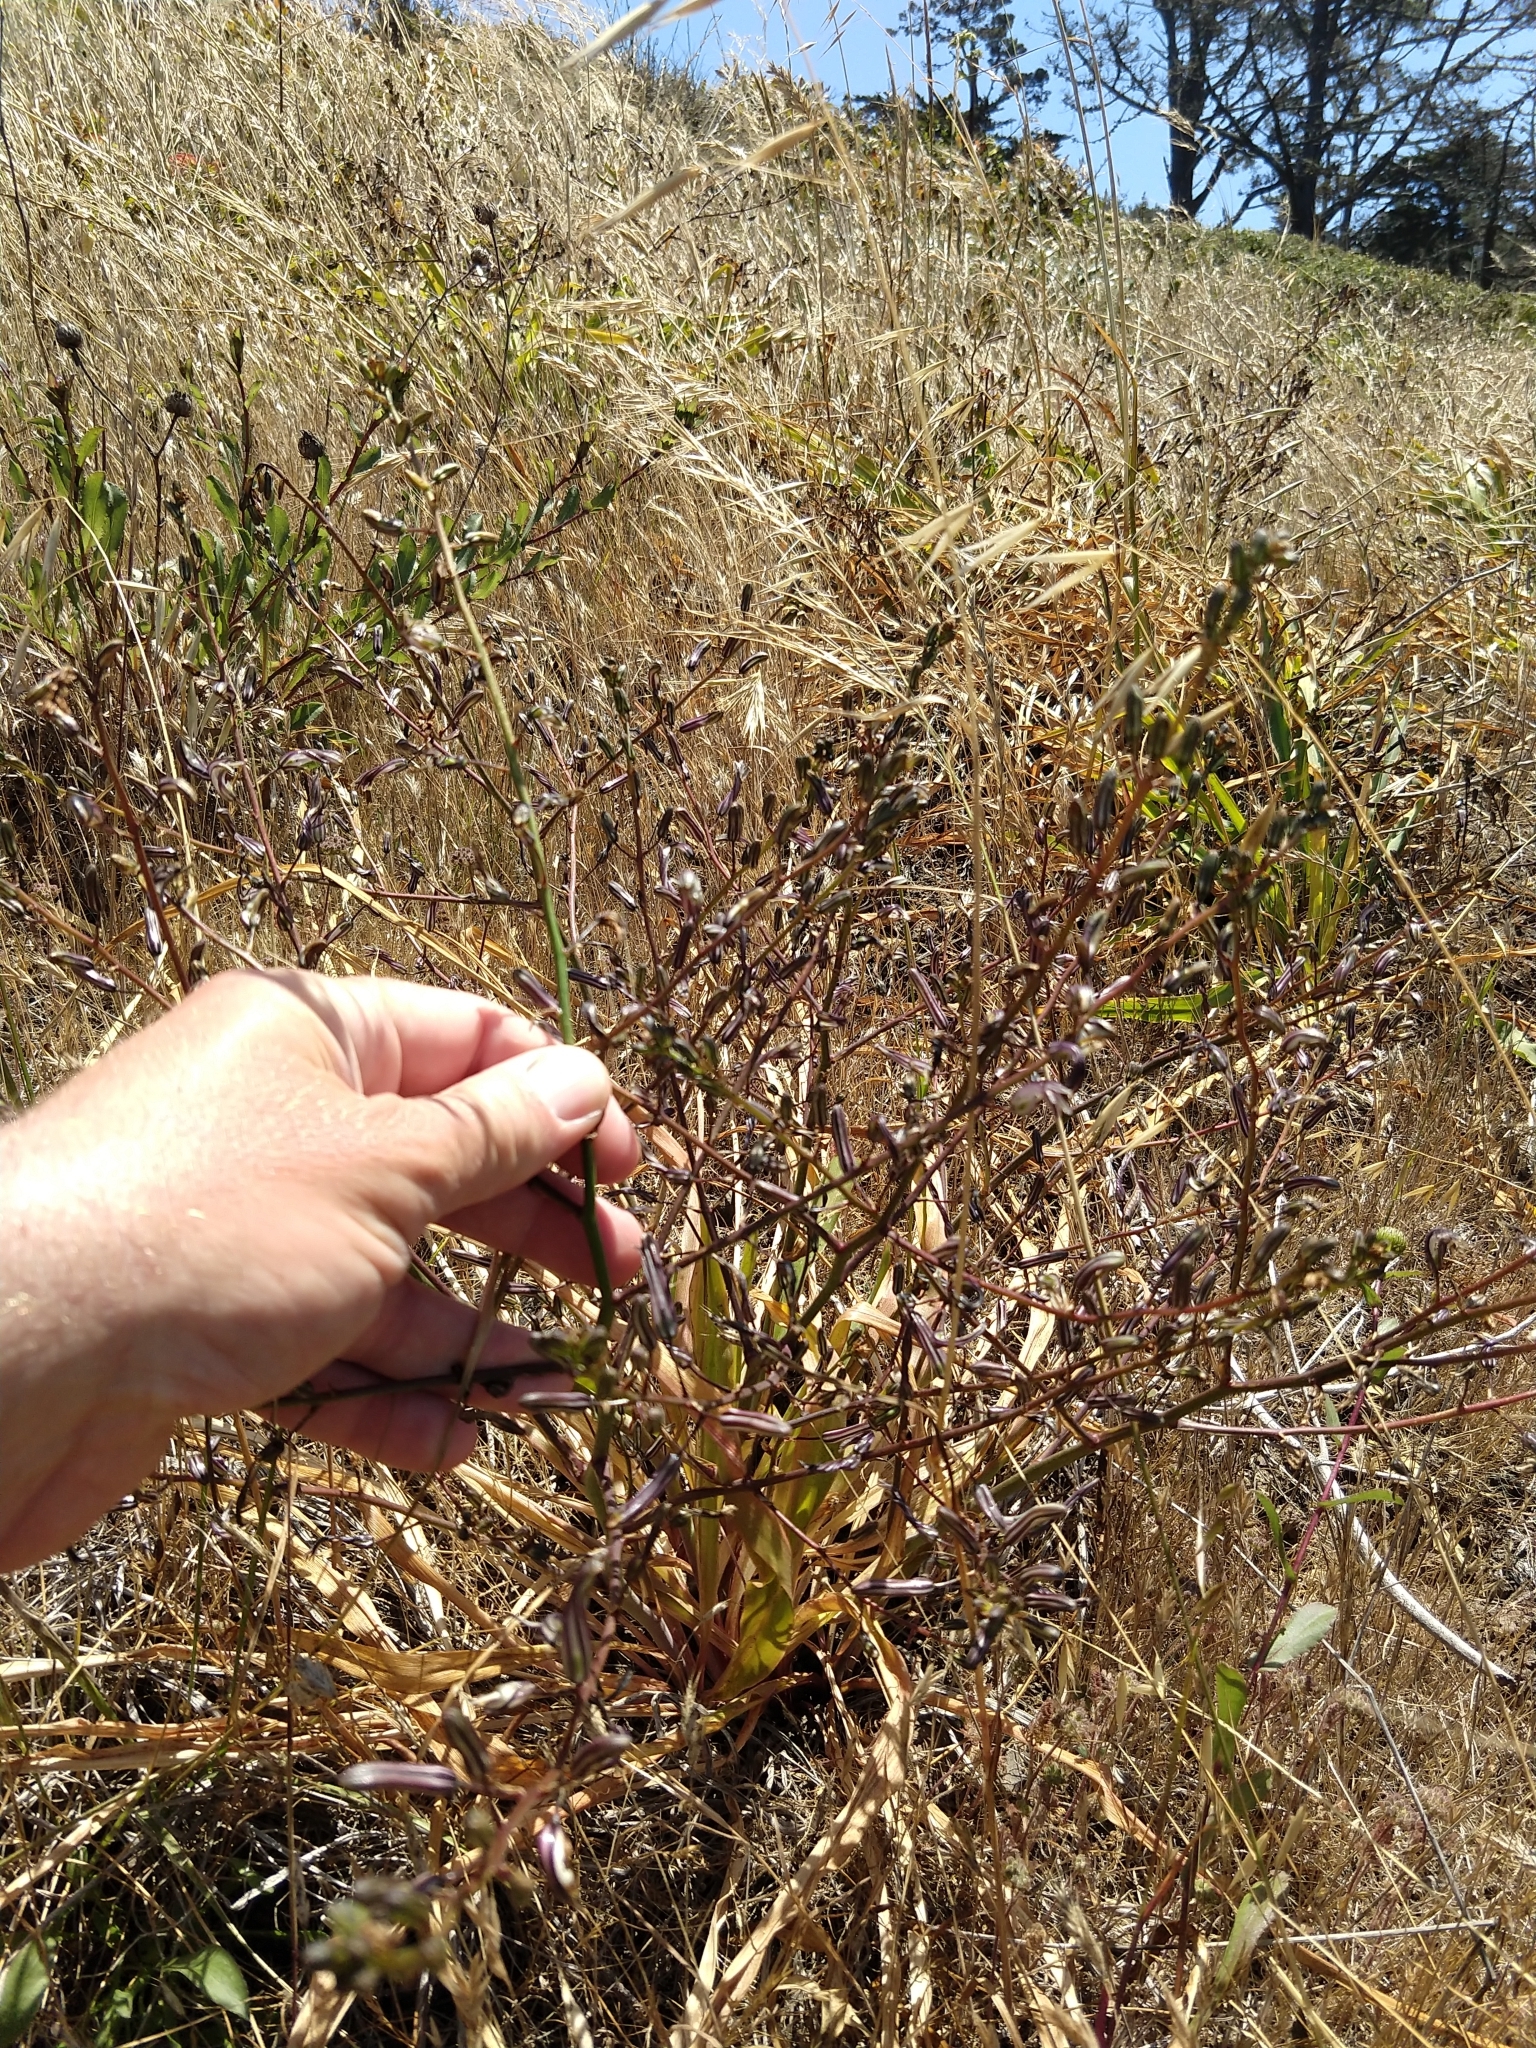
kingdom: Plantae
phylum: Tracheophyta
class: Liliopsida
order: Asparagales
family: Asparagaceae
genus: Chlorogalum
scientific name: Chlorogalum pomeridianum
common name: Amole
